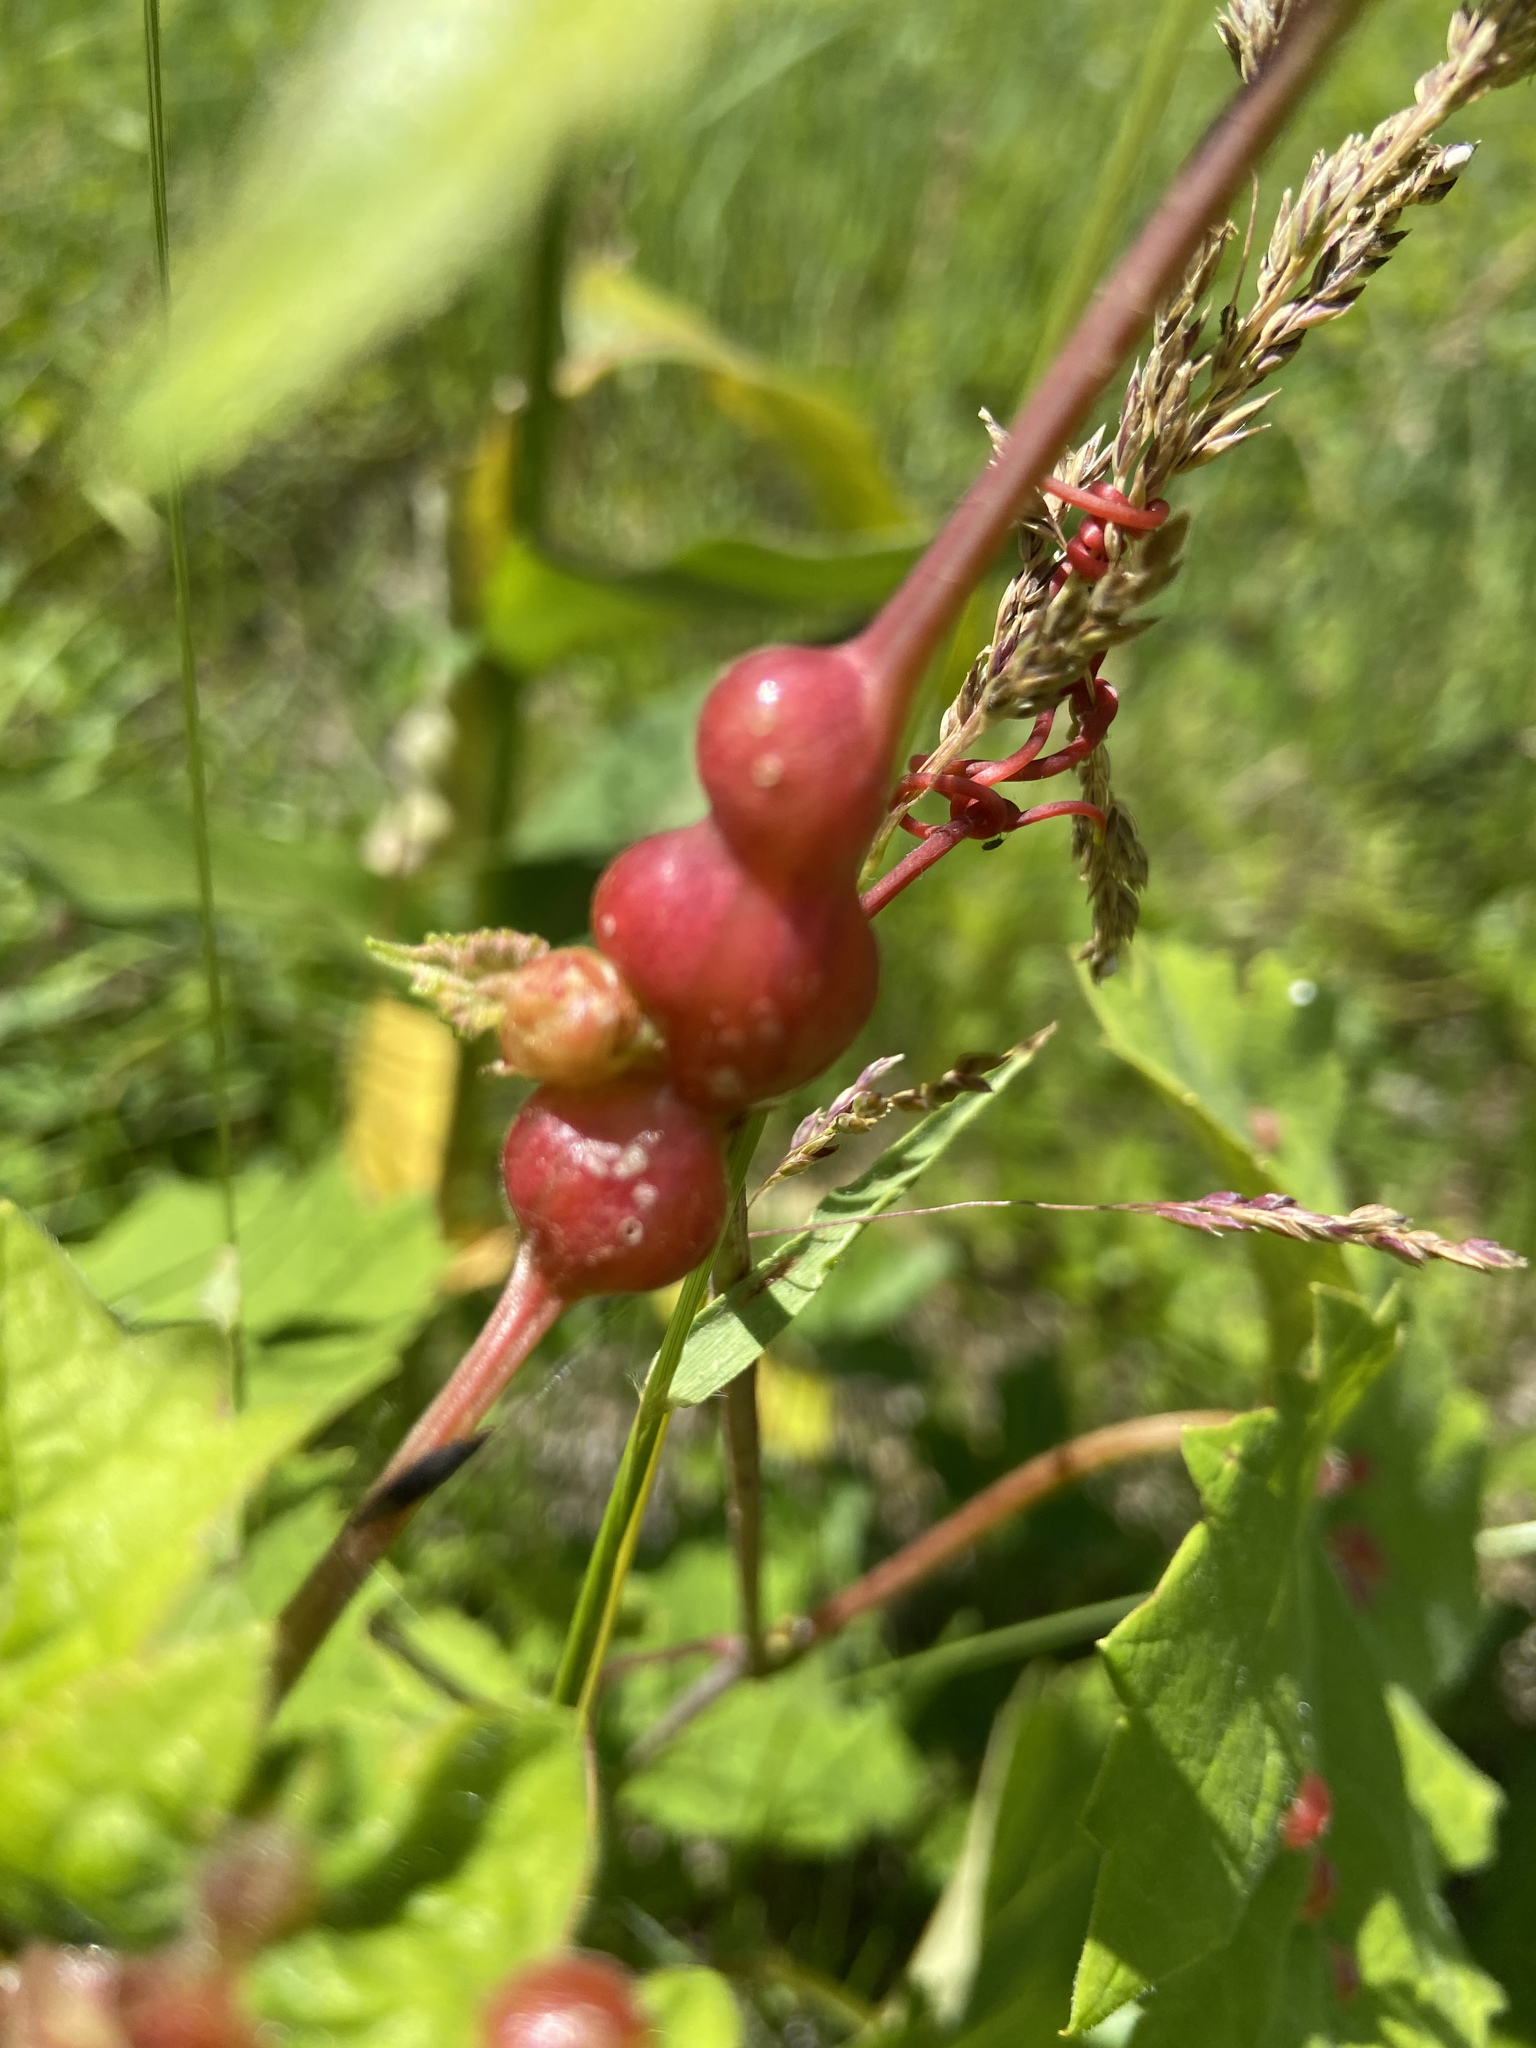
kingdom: Animalia
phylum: Arthropoda
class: Insecta
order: Diptera
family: Cecidomyiidae
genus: Vitisiella
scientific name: Vitisiella brevicauda
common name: Grape tumid gallmaker midge
